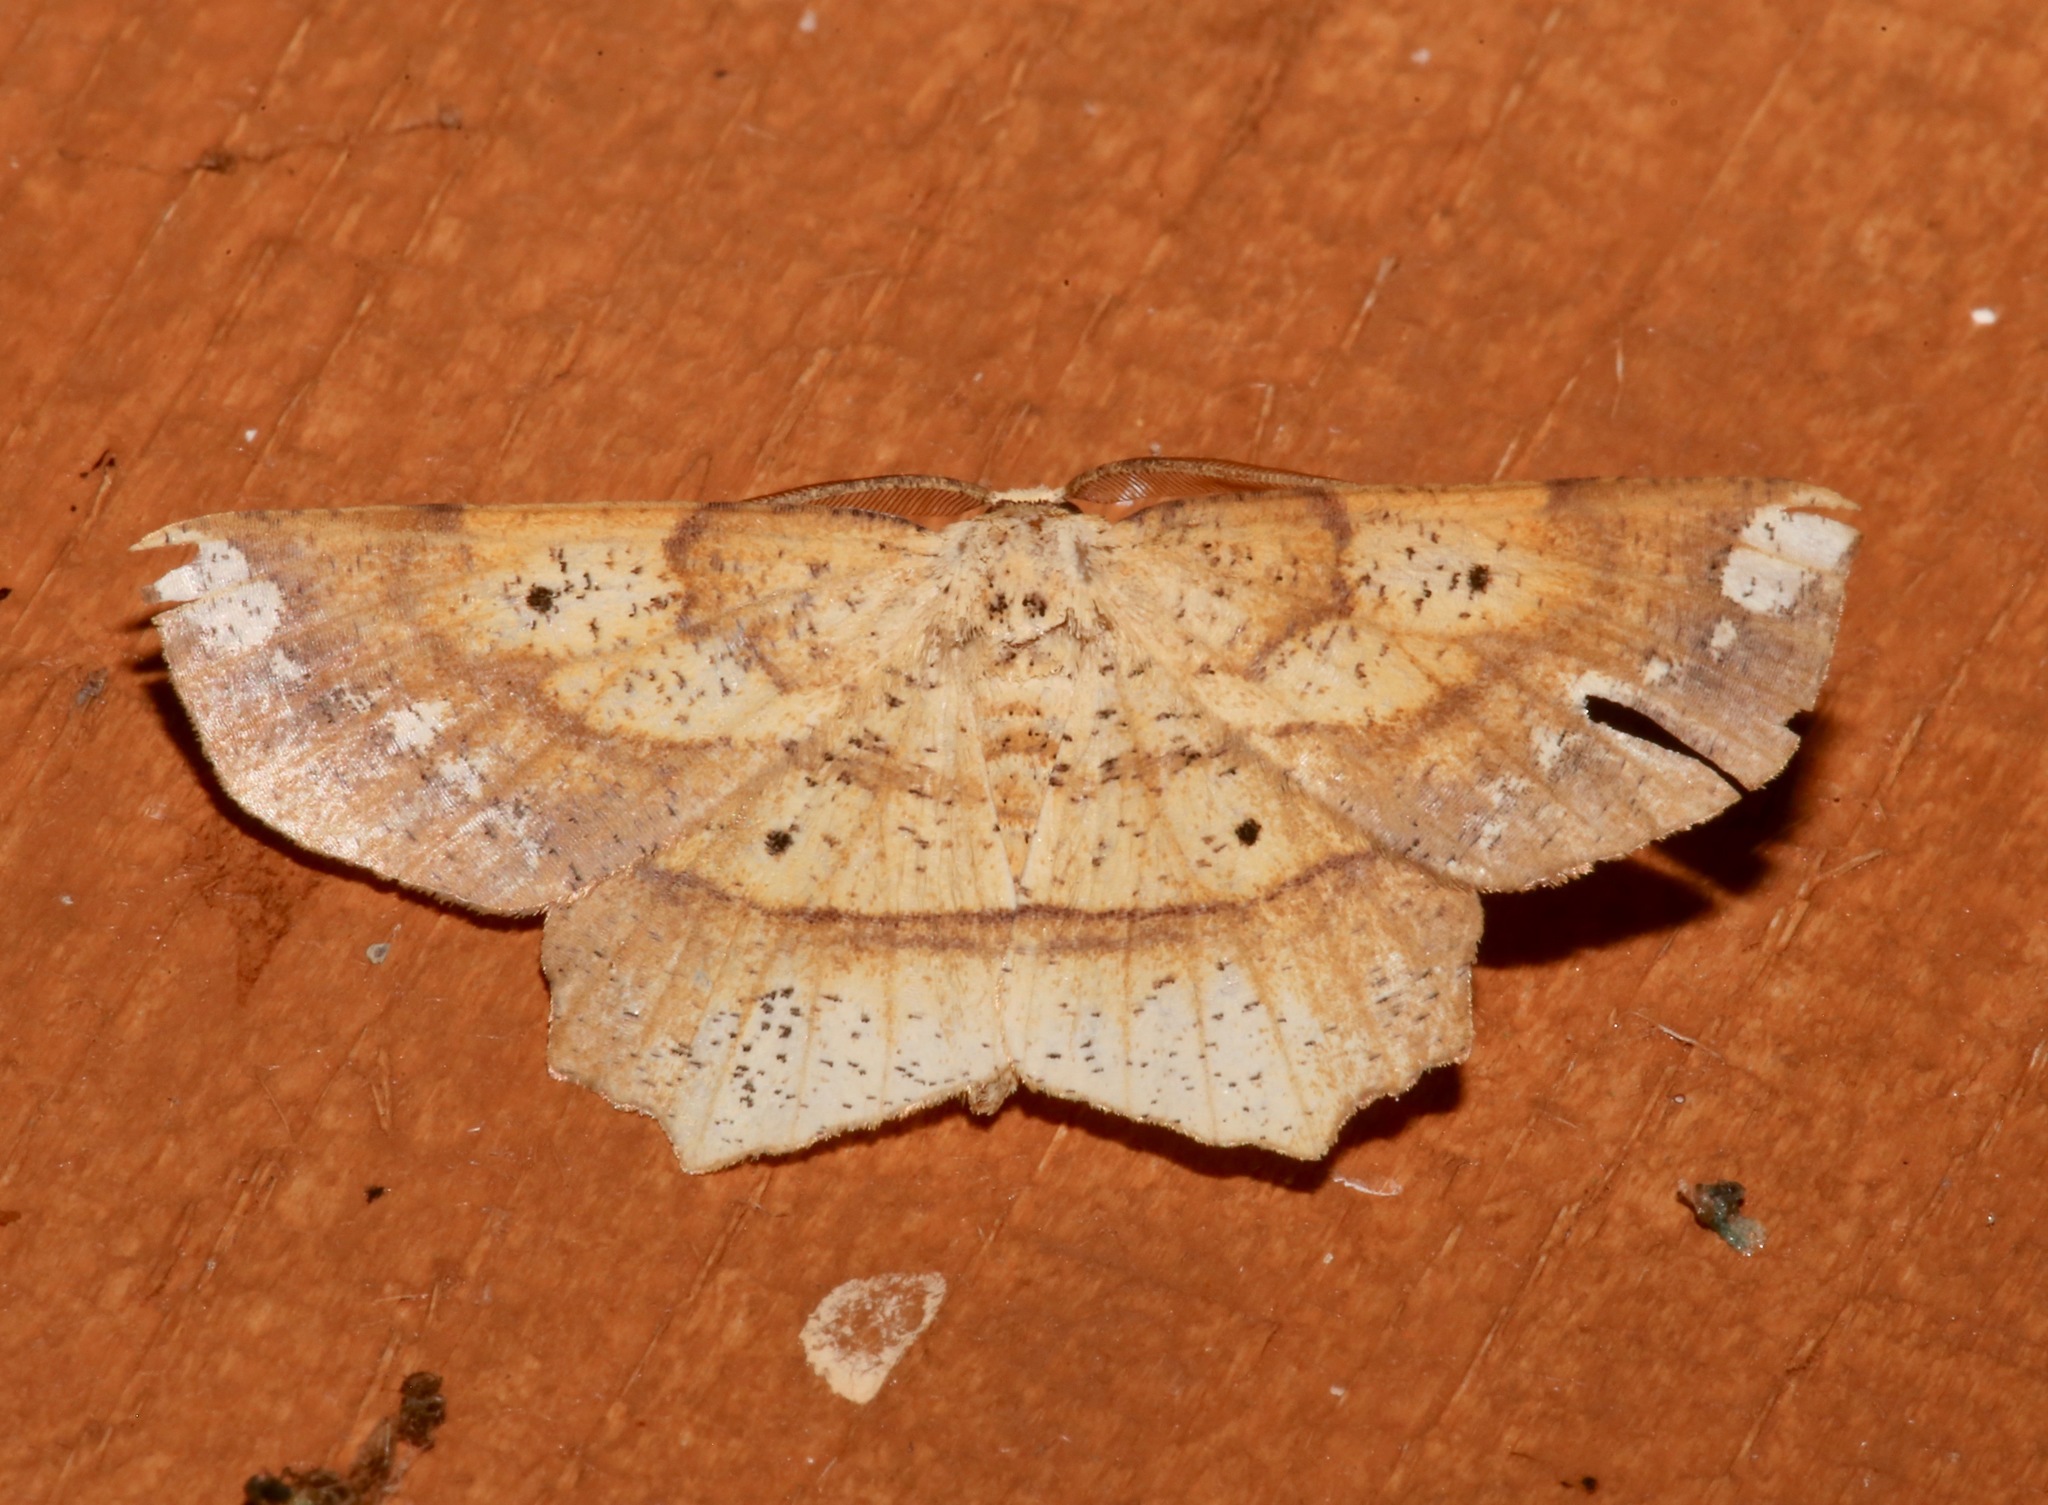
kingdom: Animalia
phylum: Arthropoda
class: Insecta
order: Lepidoptera
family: Geometridae
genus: Euchlaena
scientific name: Euchlaena amoenaria
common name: Deep yellow euchlaena
